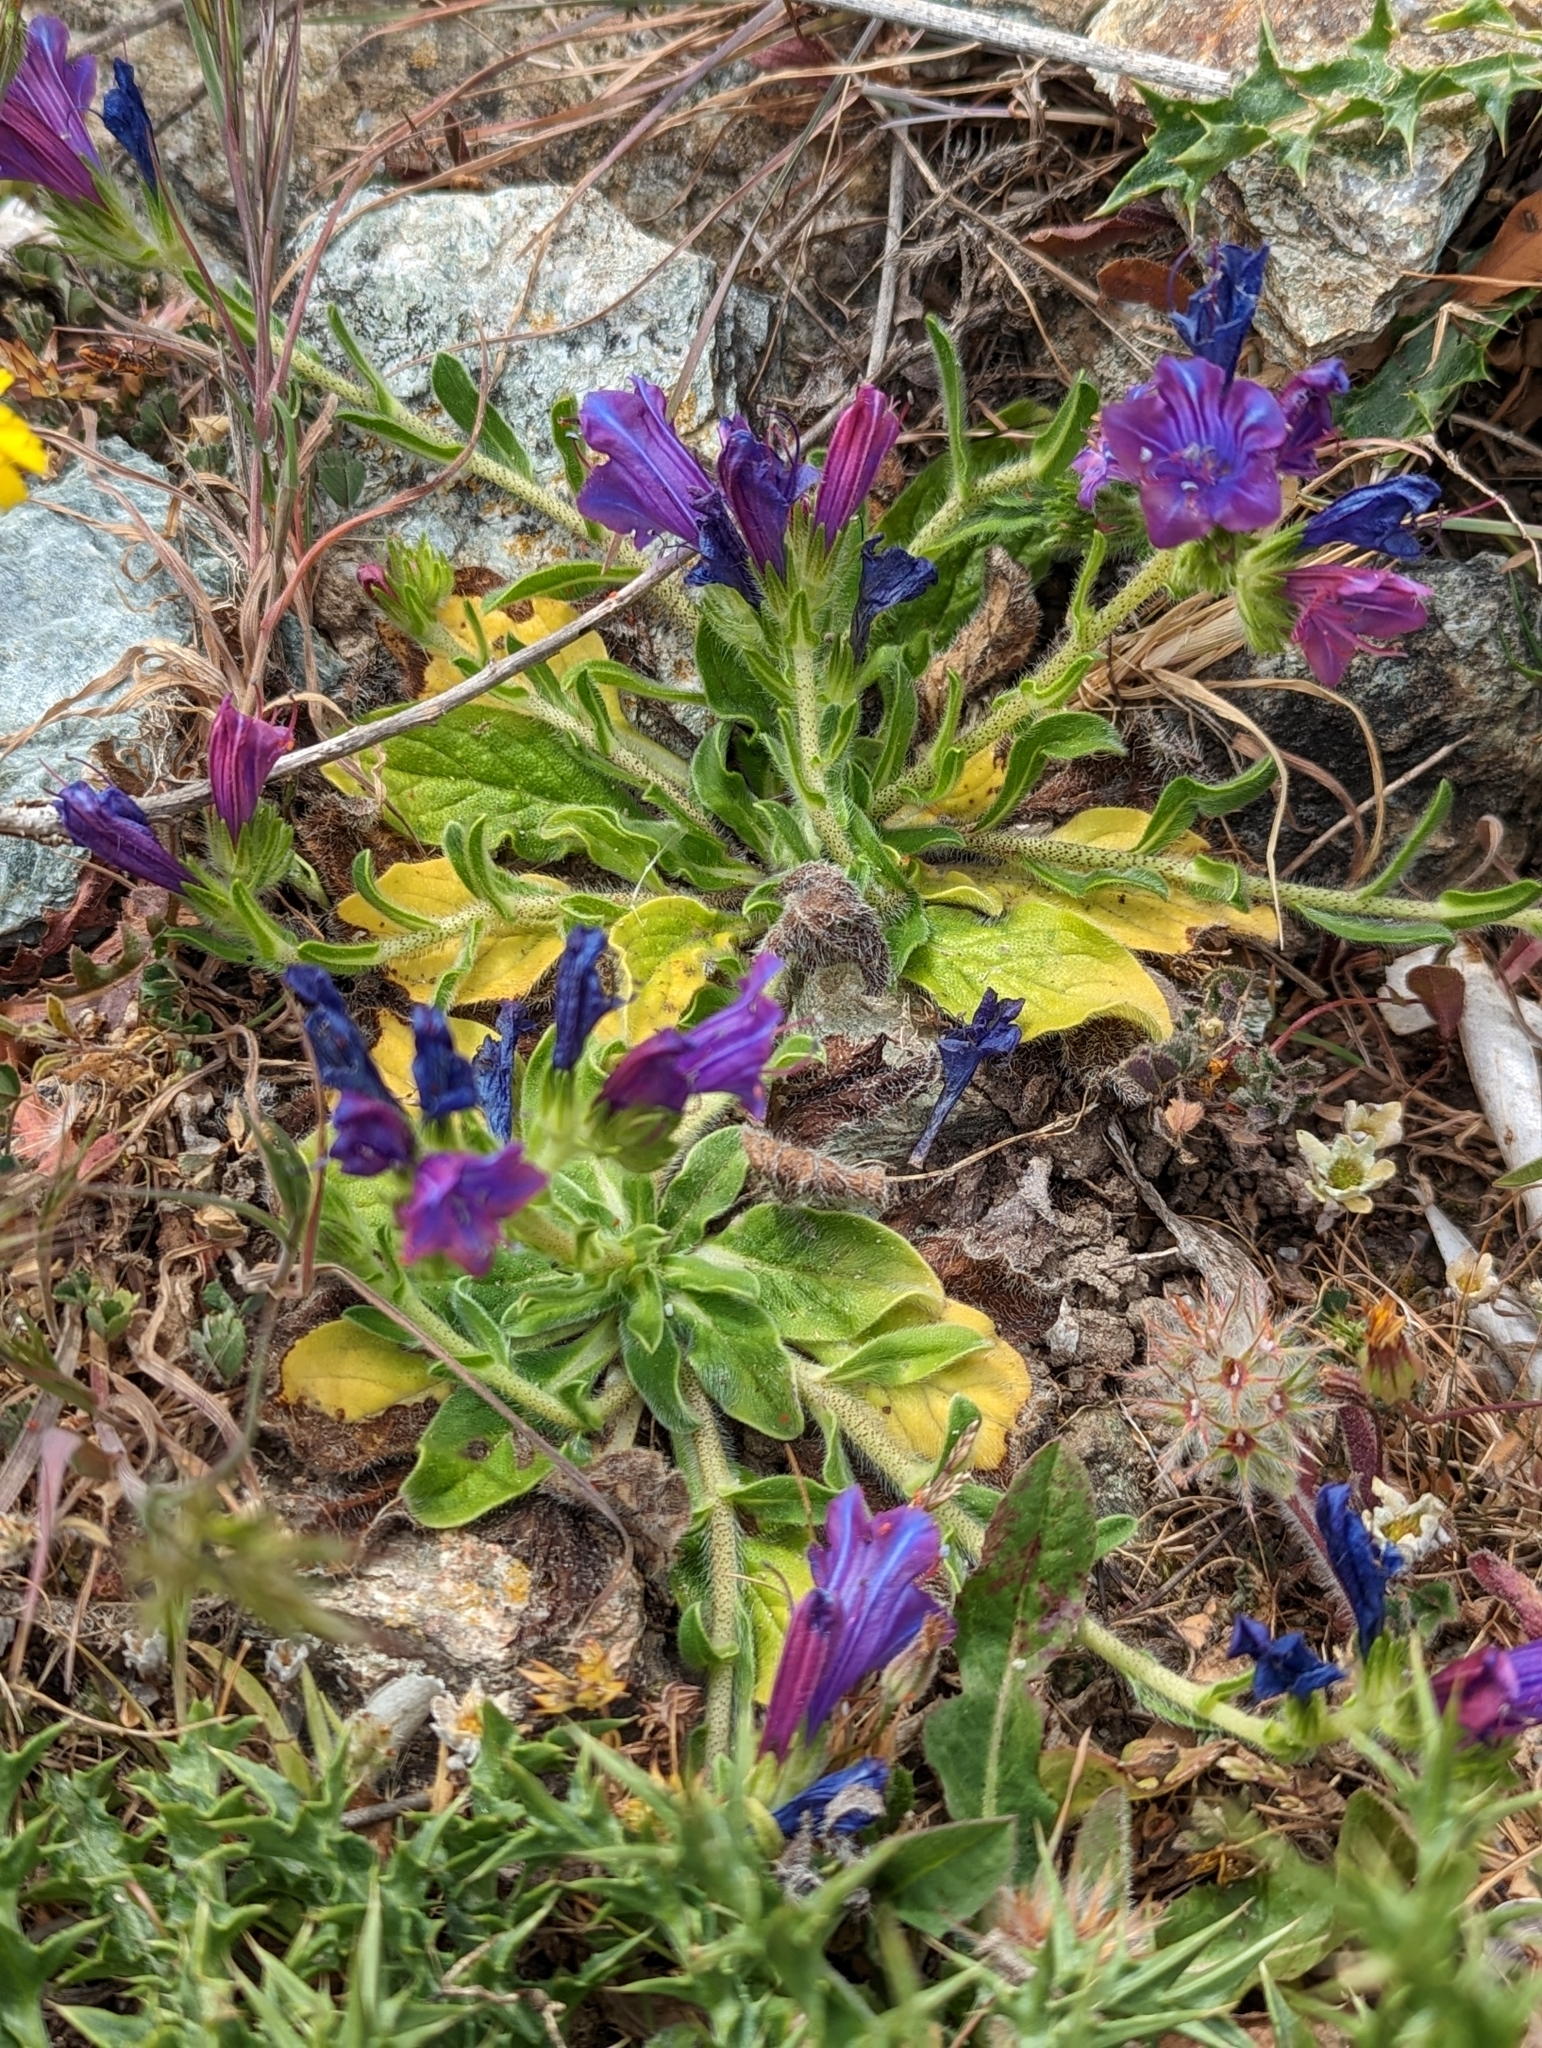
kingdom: Plantae
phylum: Tracheophyta
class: Magnoliopsida
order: Boraginales
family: Boraginaceae
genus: Echium
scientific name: Echium plantagineum
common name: Purple viper's-bugloss
